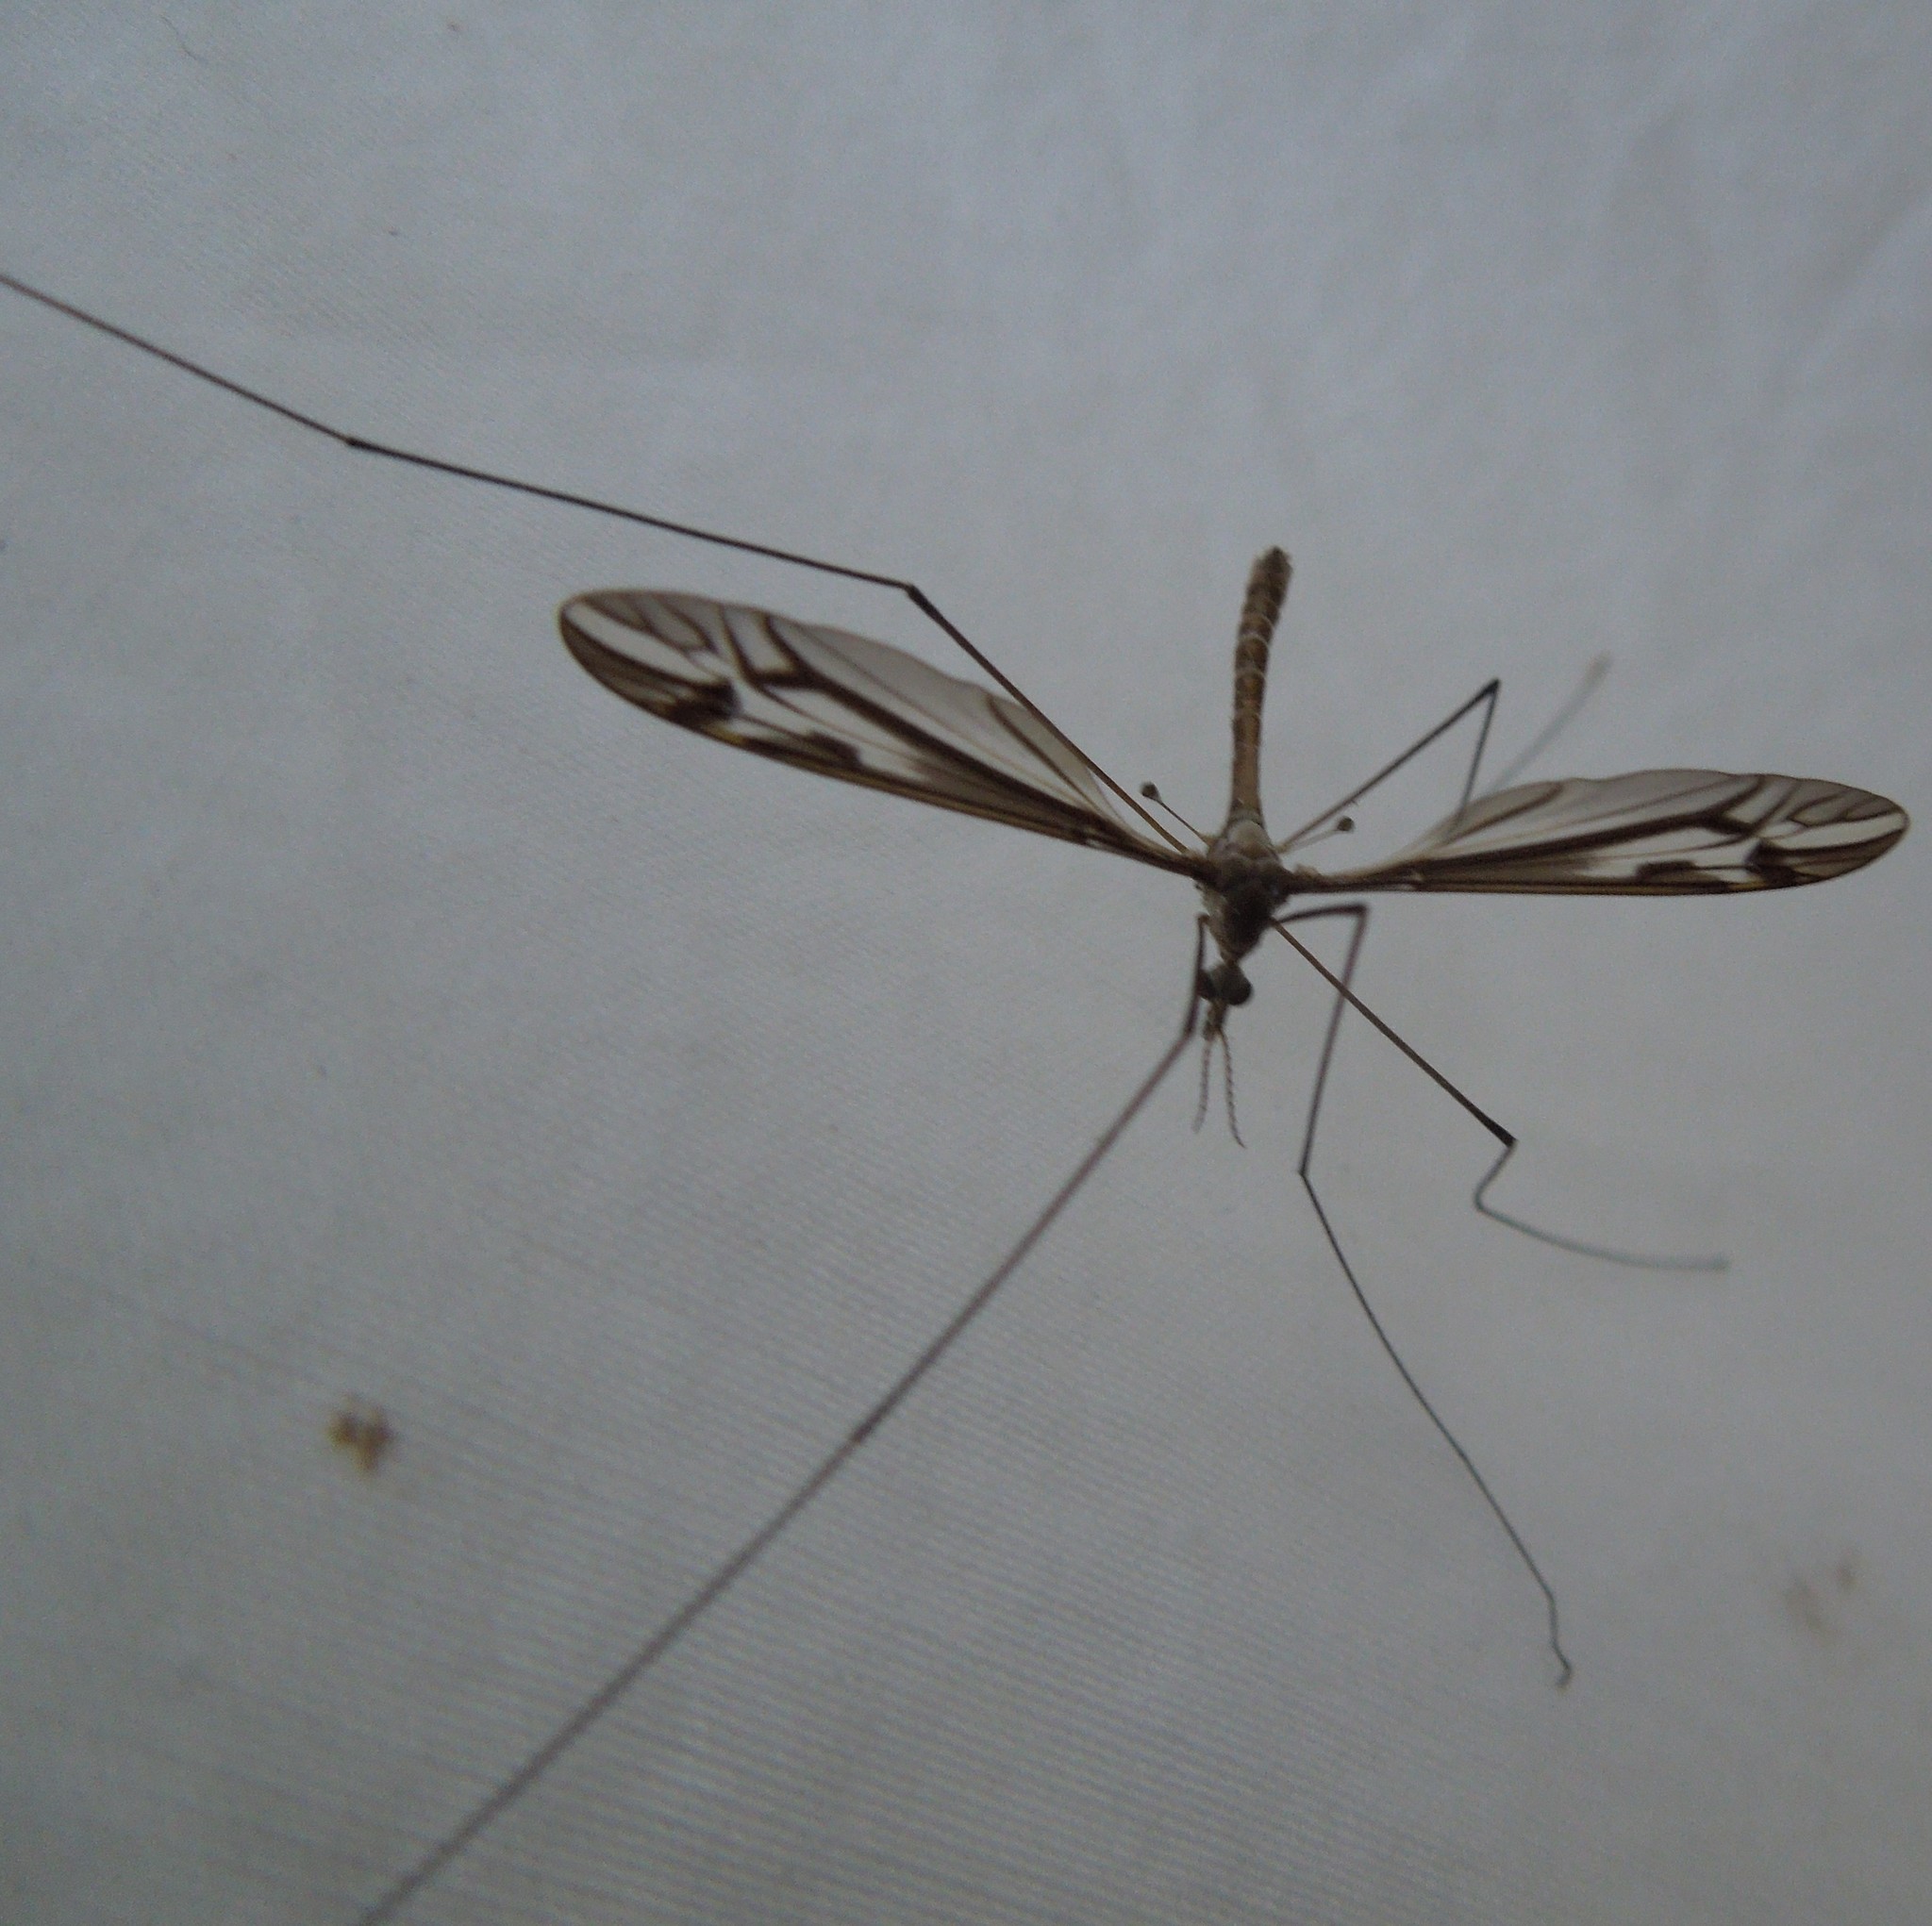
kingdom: Animalia
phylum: Arthropoda
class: Insecta
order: Diptera
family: Tipulidae
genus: Tipula
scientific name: Tipula
